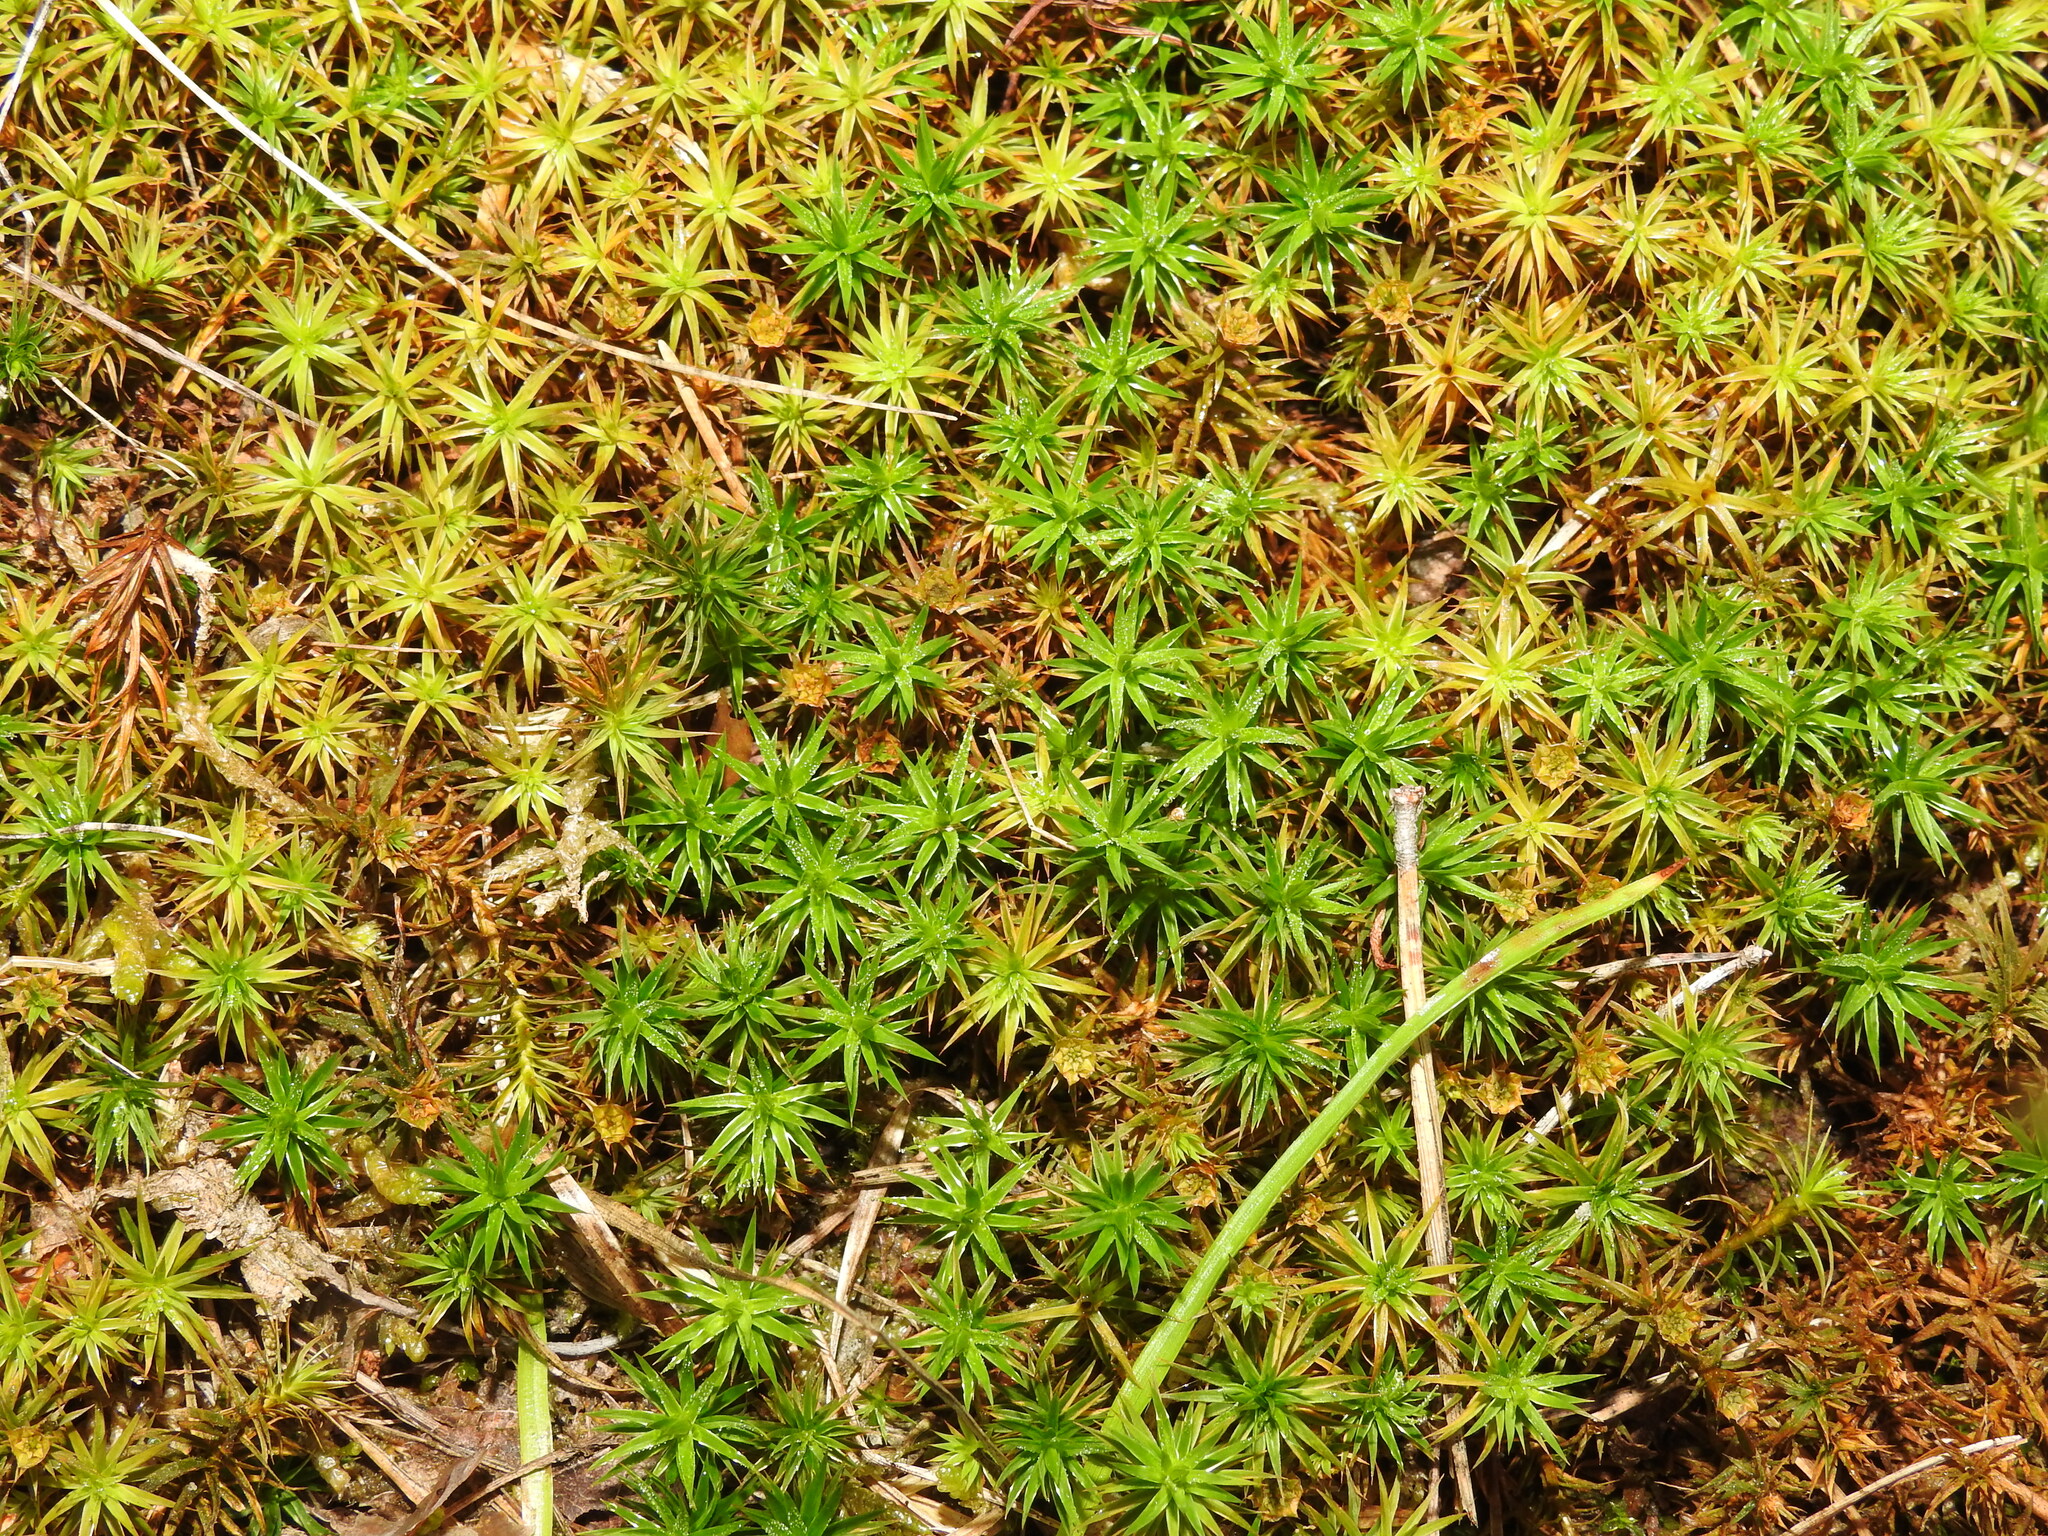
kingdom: Plantae
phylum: Bryophyta
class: Polytrichopsida
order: Polytrichales
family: Polytrichaceae
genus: Polytrichum
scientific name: Polytrichum formosum
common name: Bank haircap moss
